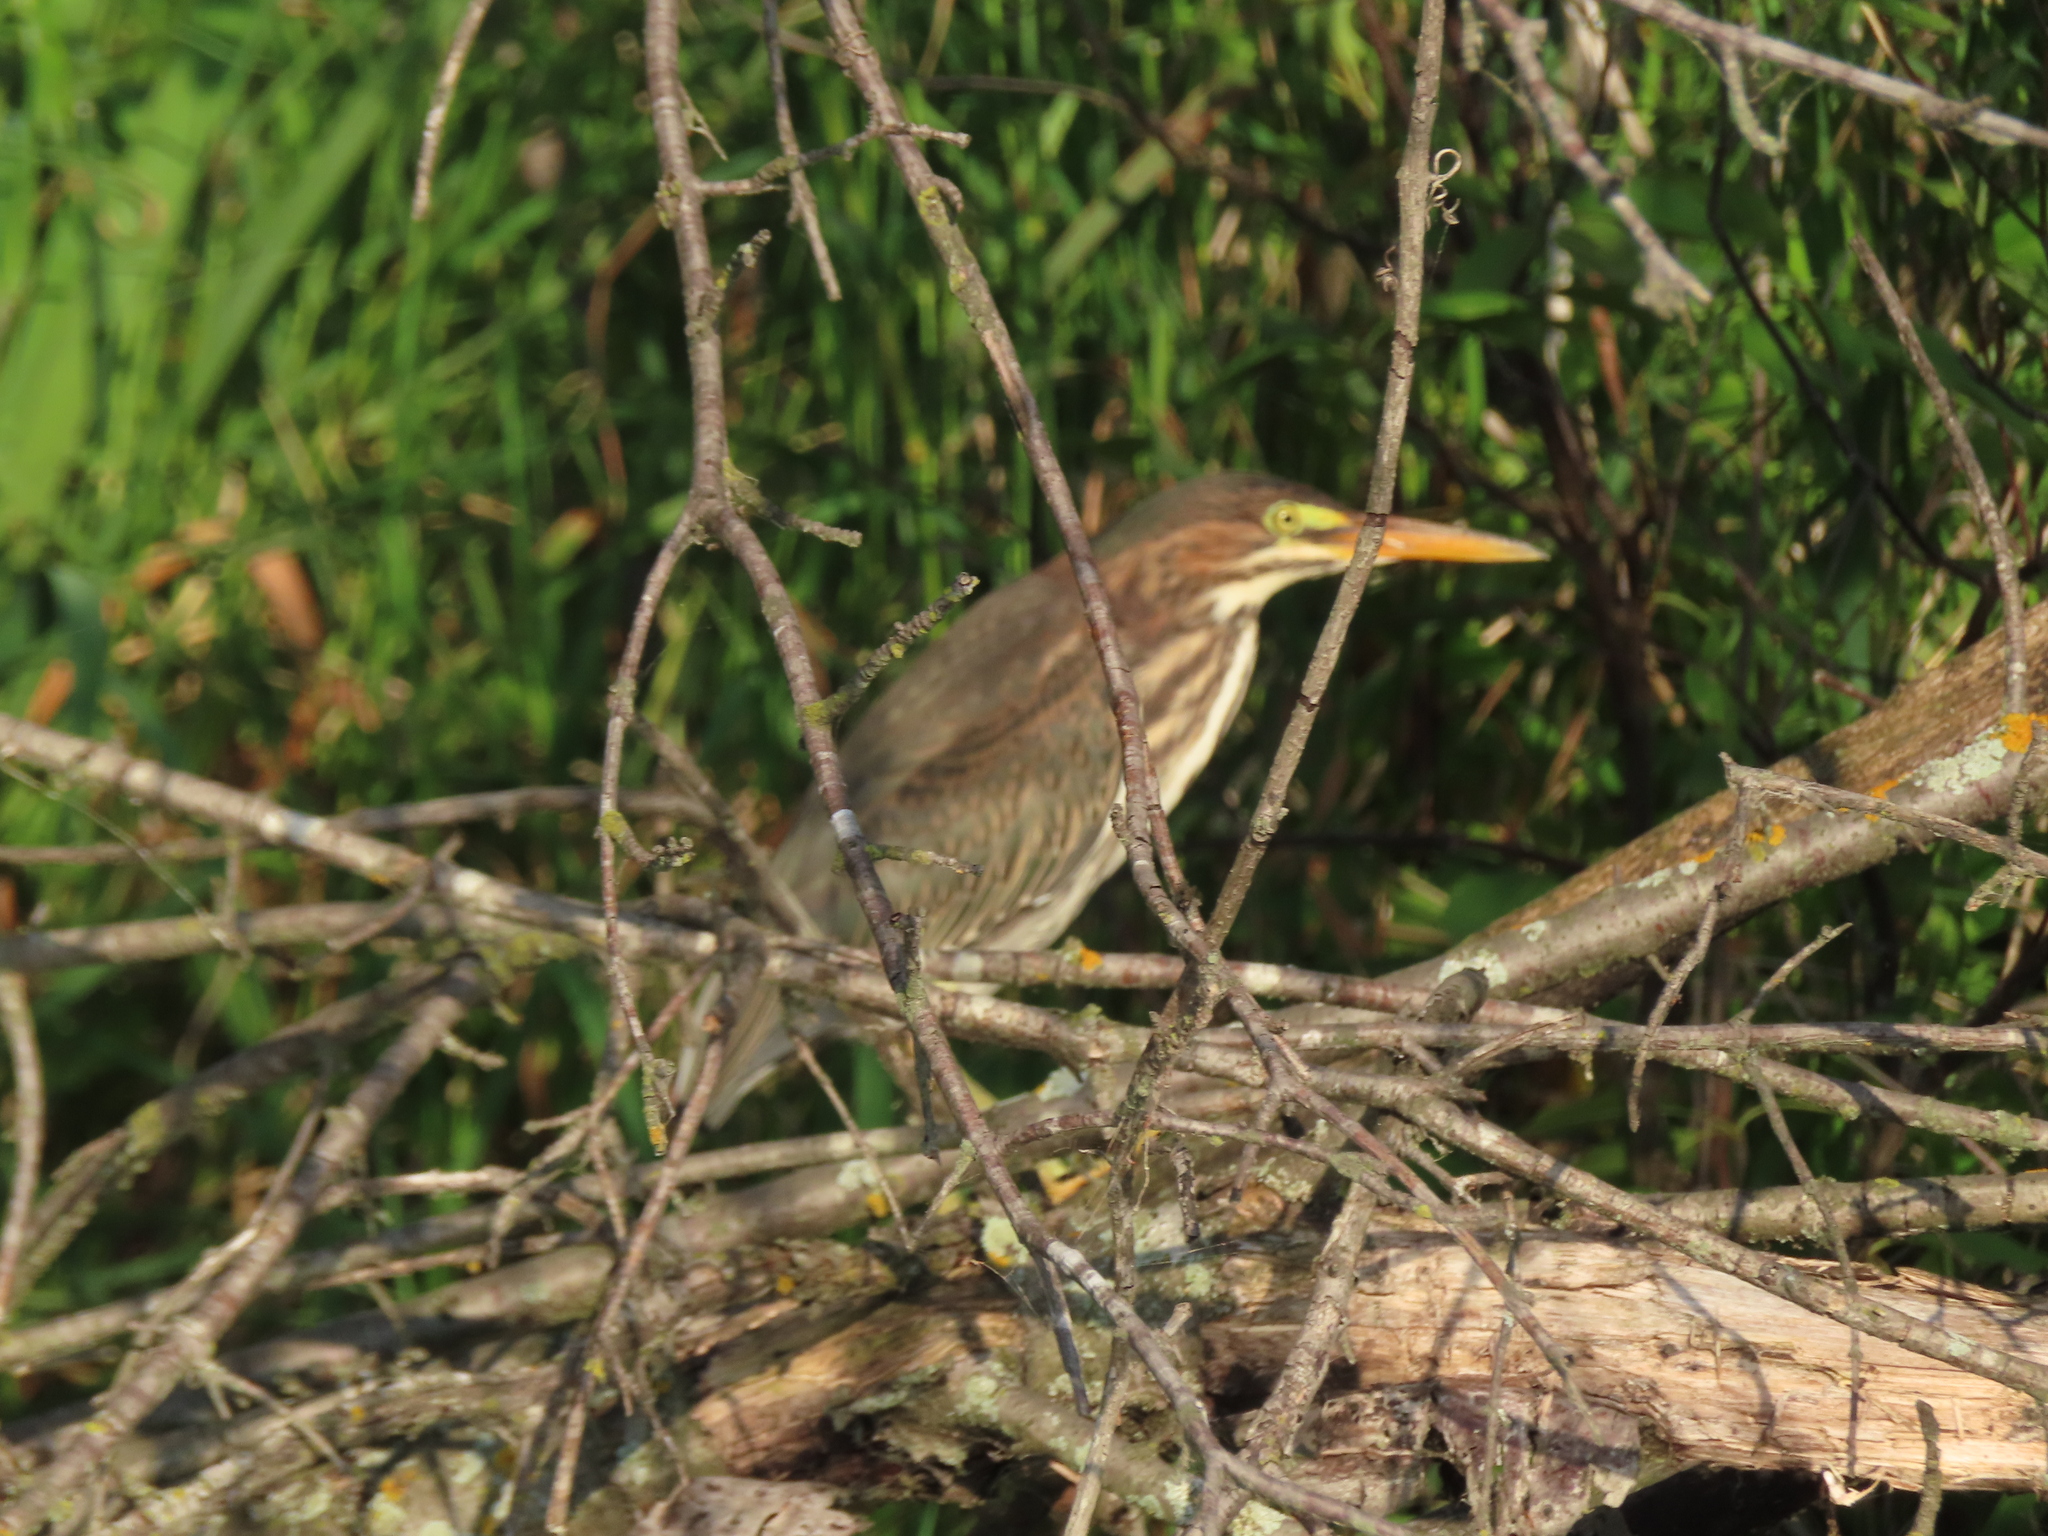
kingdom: Animalia
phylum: Chordata
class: Aves
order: Pelecaniformes
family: Ardeidae
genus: Butorides
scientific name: Butorides virescens
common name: Green heron
